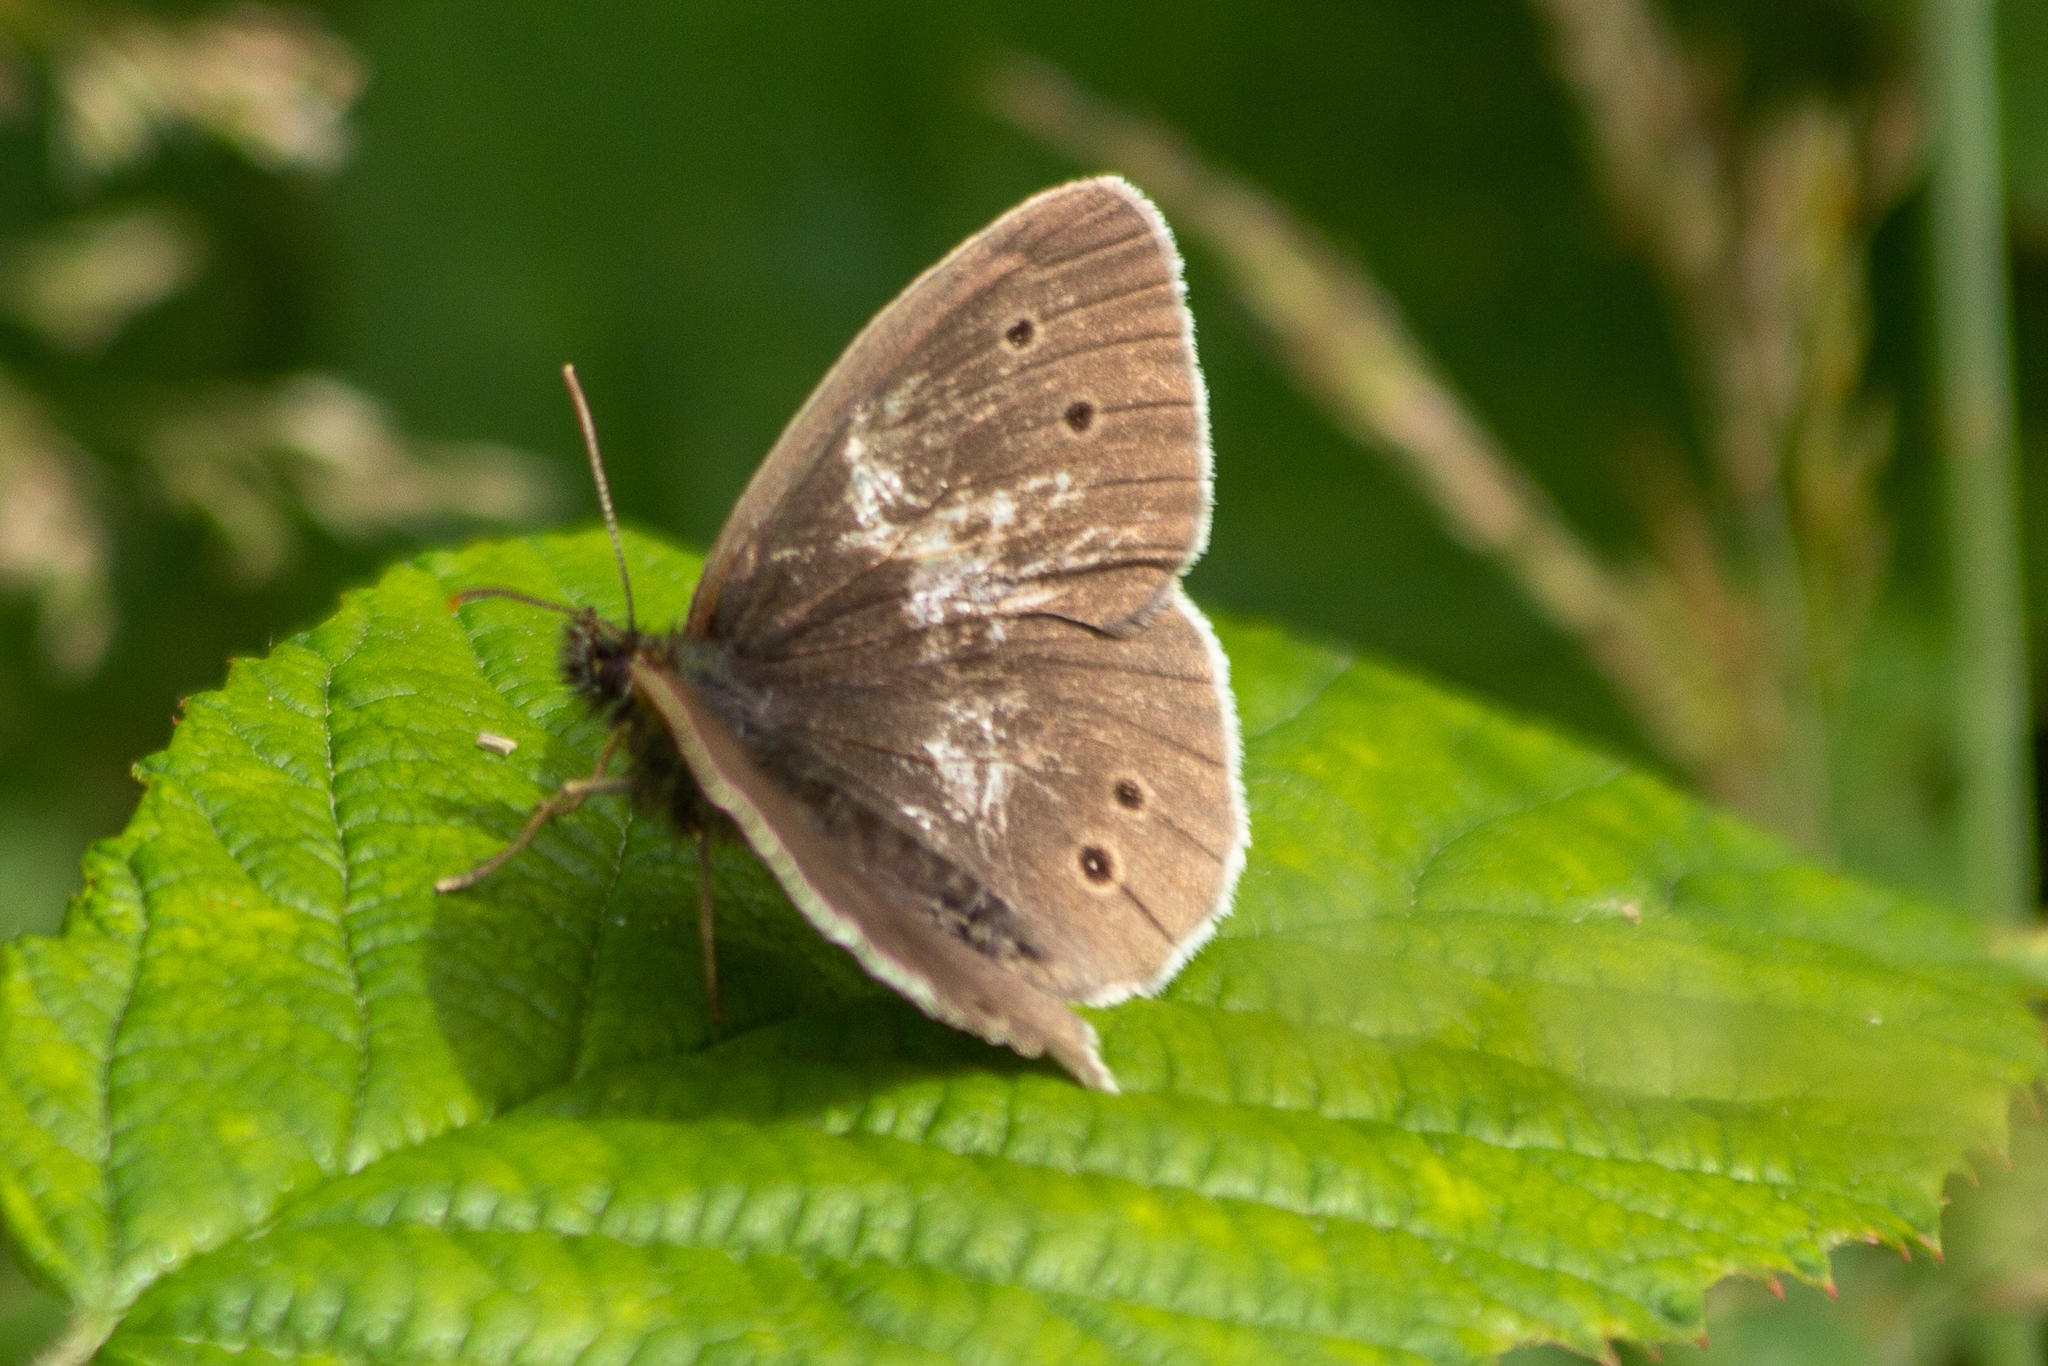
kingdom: Animalia
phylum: Arthropoda
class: Insecta
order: Lepidoptera
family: Nymphalidae
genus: Aphantopus
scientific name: Aphantopus hyperantus
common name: Ringlet
